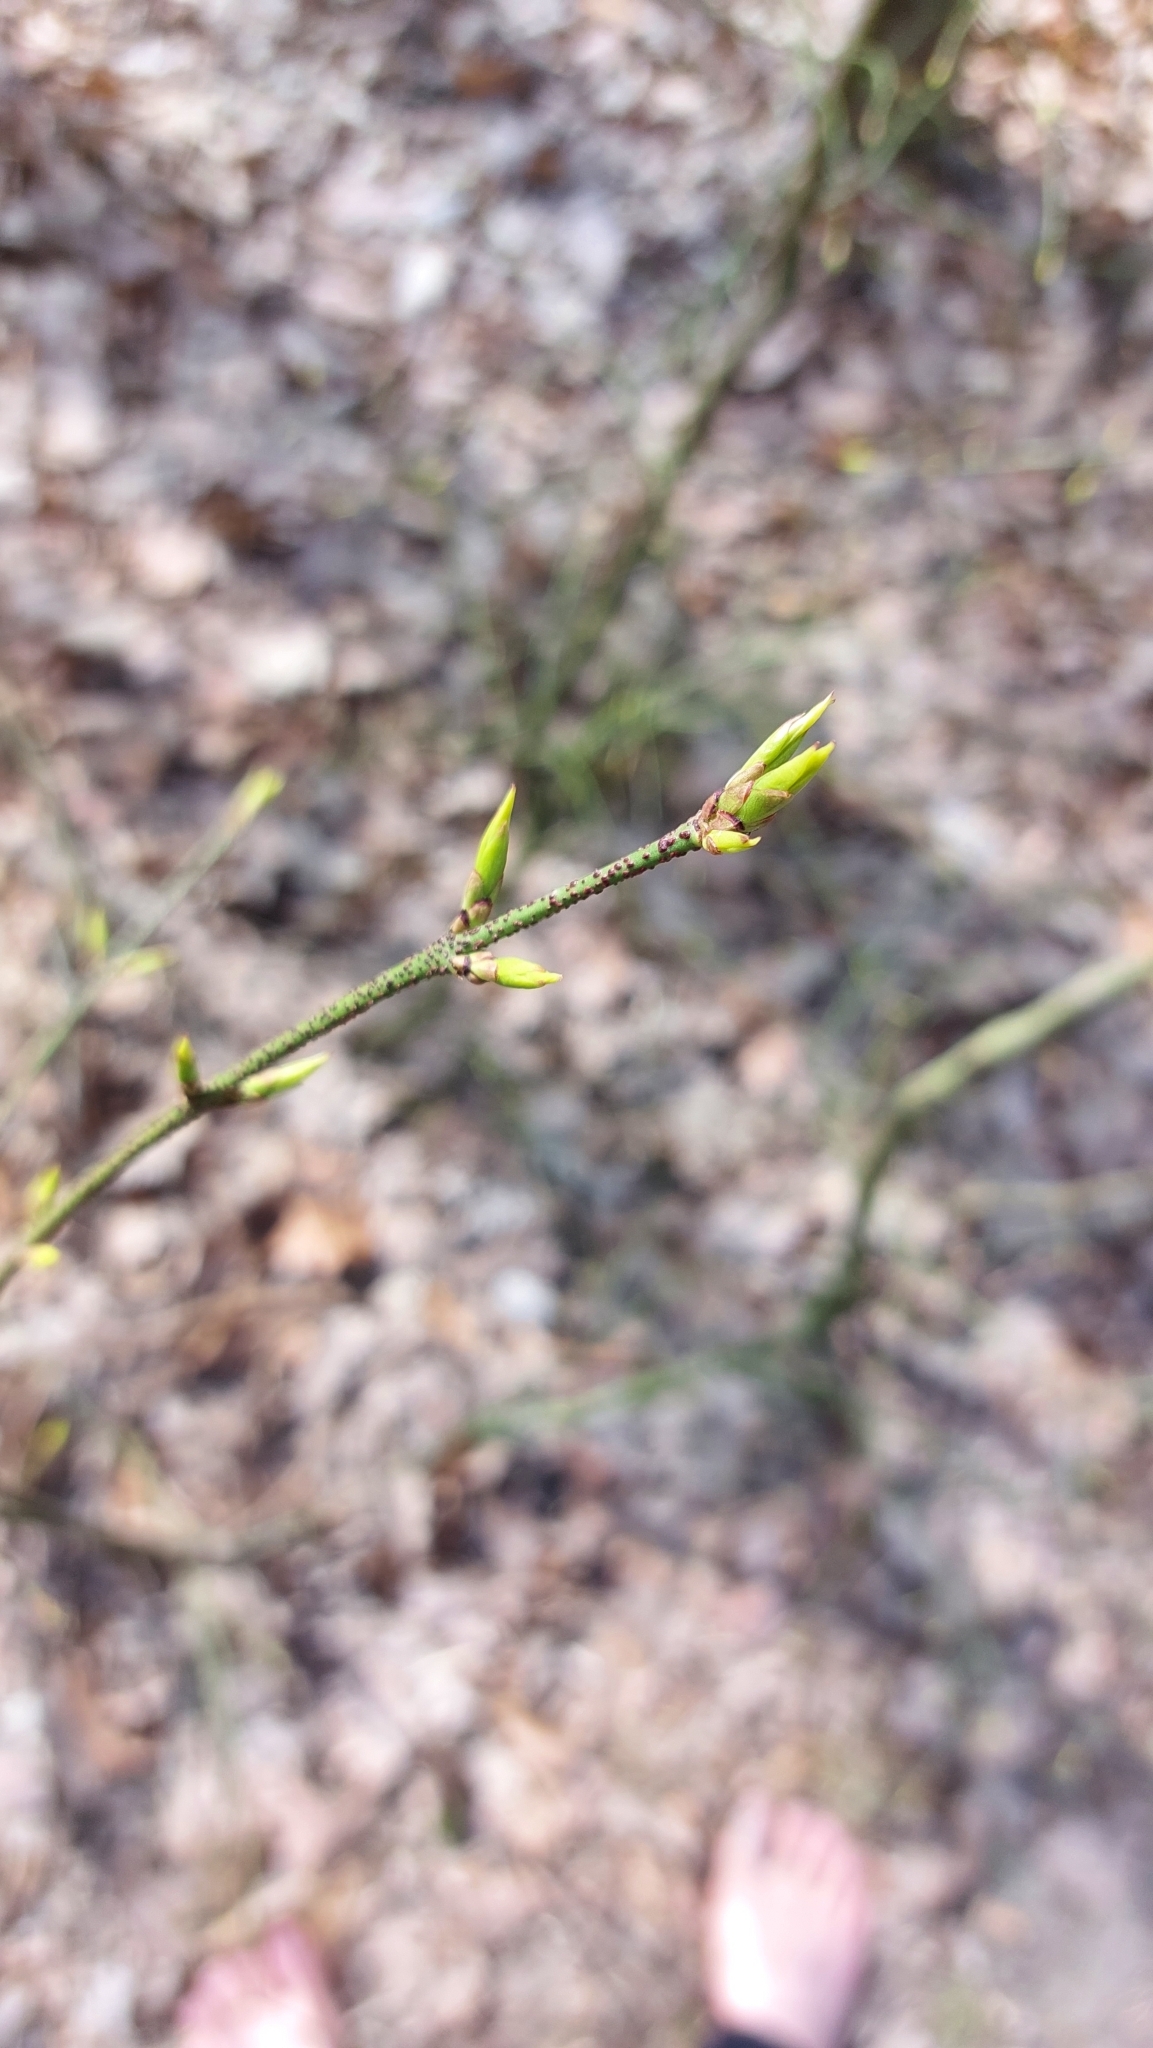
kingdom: Plantae
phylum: Tracheophyta
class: Magnoliopsida
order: Celastrales
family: Celastraceae
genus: Euonymus
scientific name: Euonymus verrucosus
